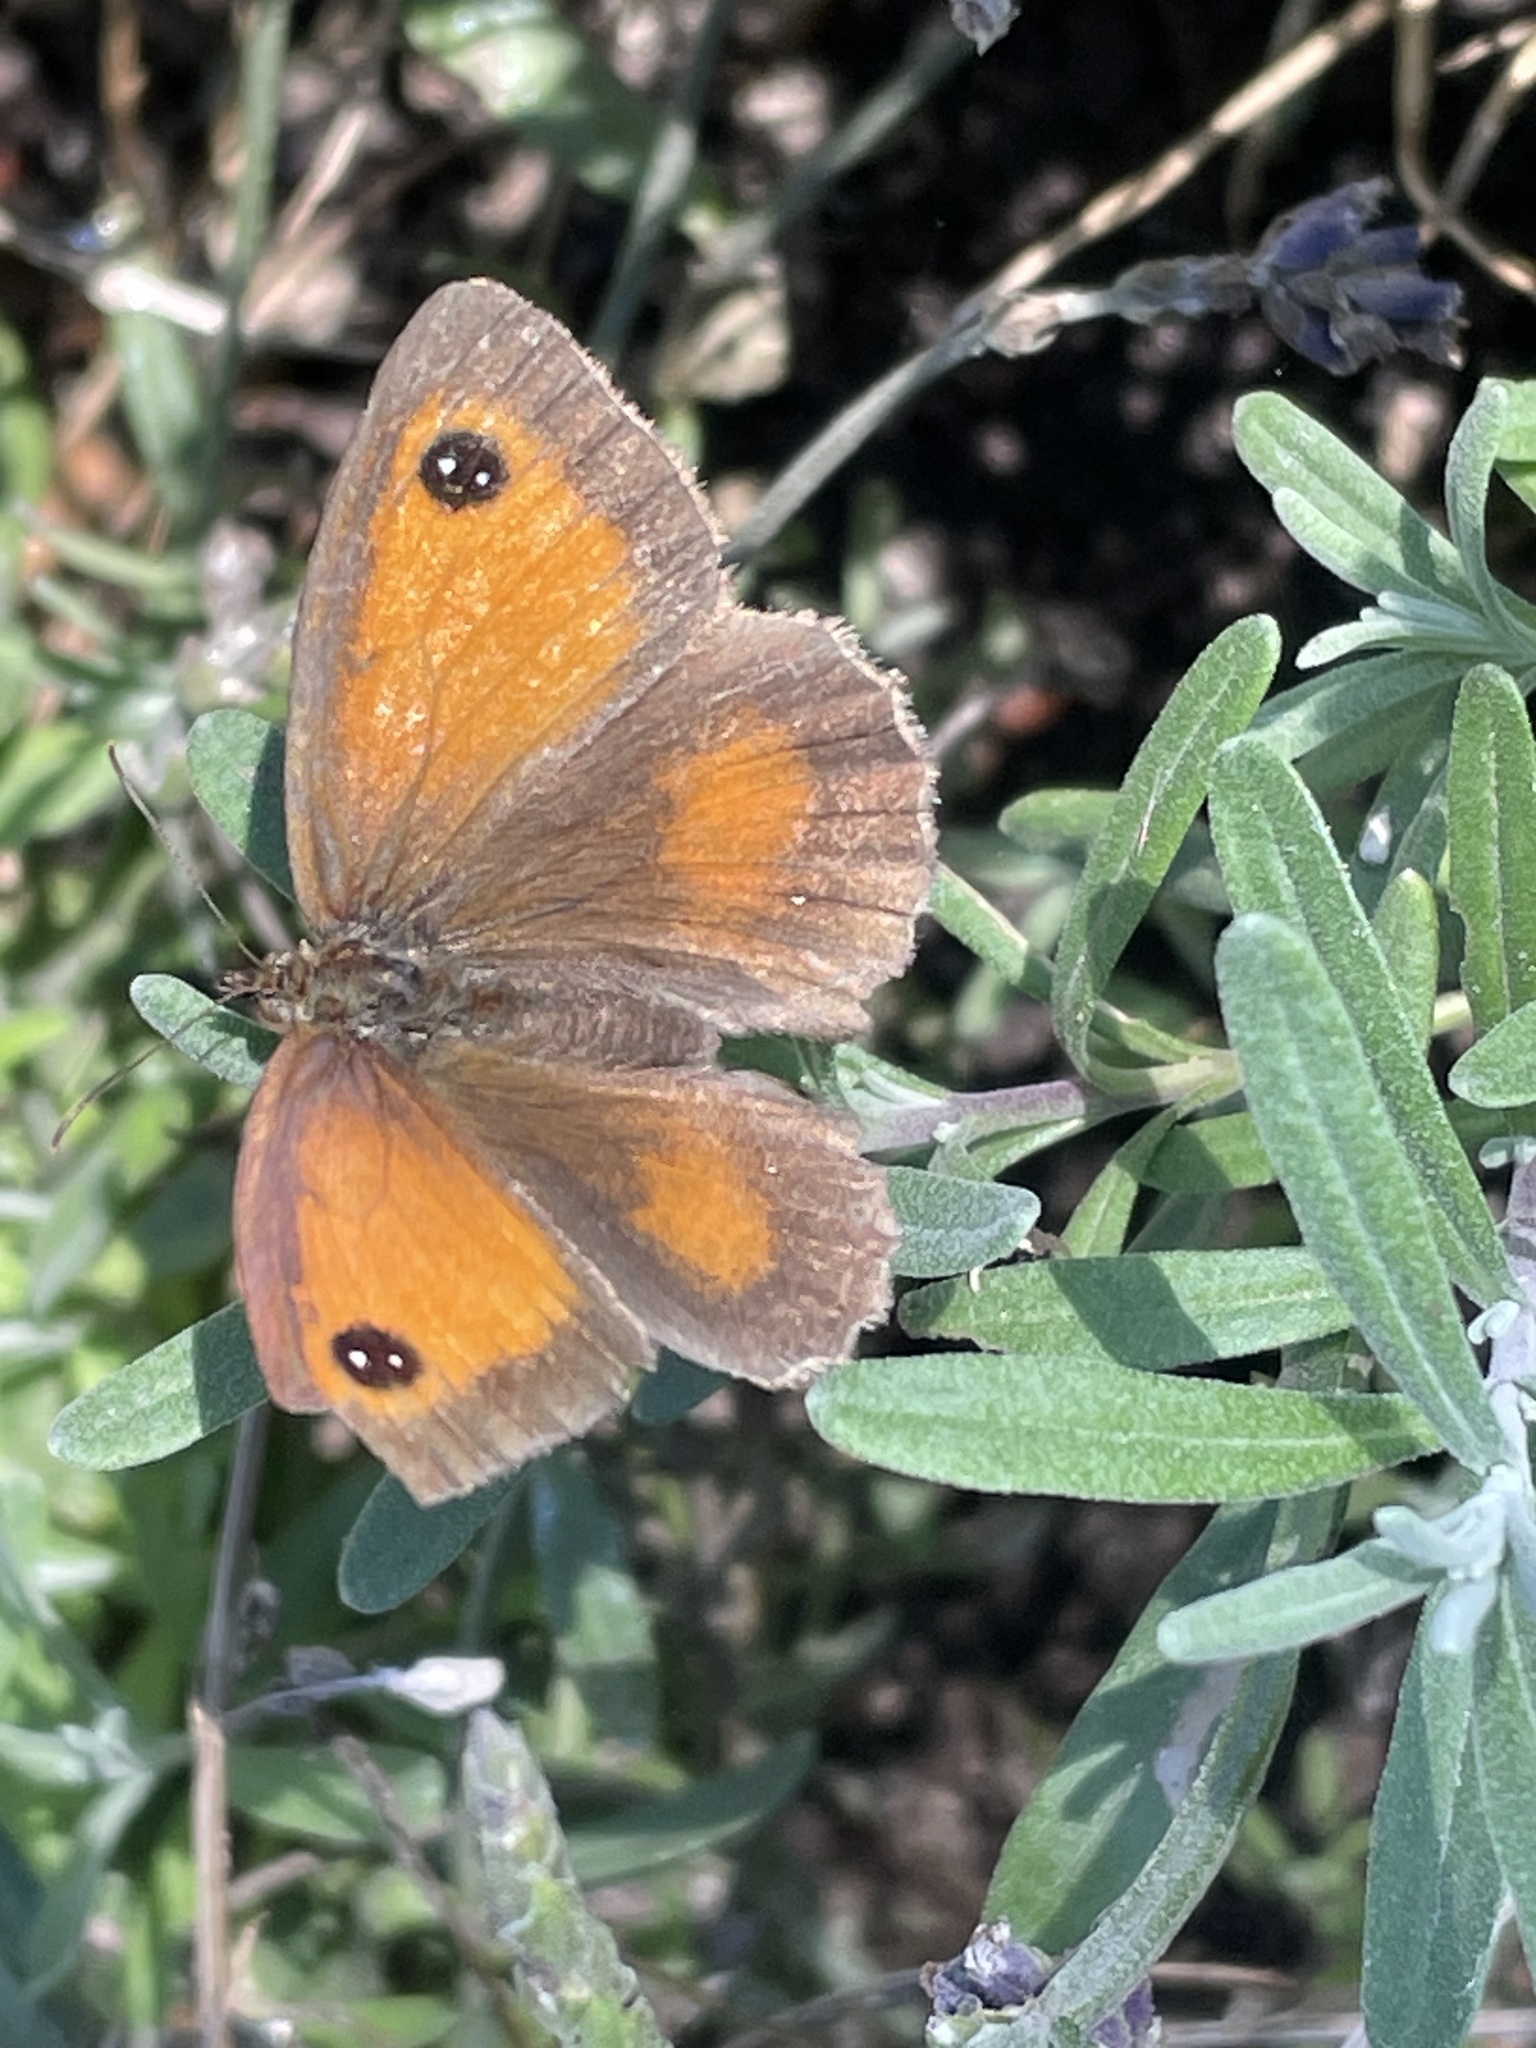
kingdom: Animalia
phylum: Arthropoda
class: Insecta
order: Lepidoptera
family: Nymphalidae
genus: Pyronia
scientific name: Pyronia tithonus
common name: Gatekeeper
